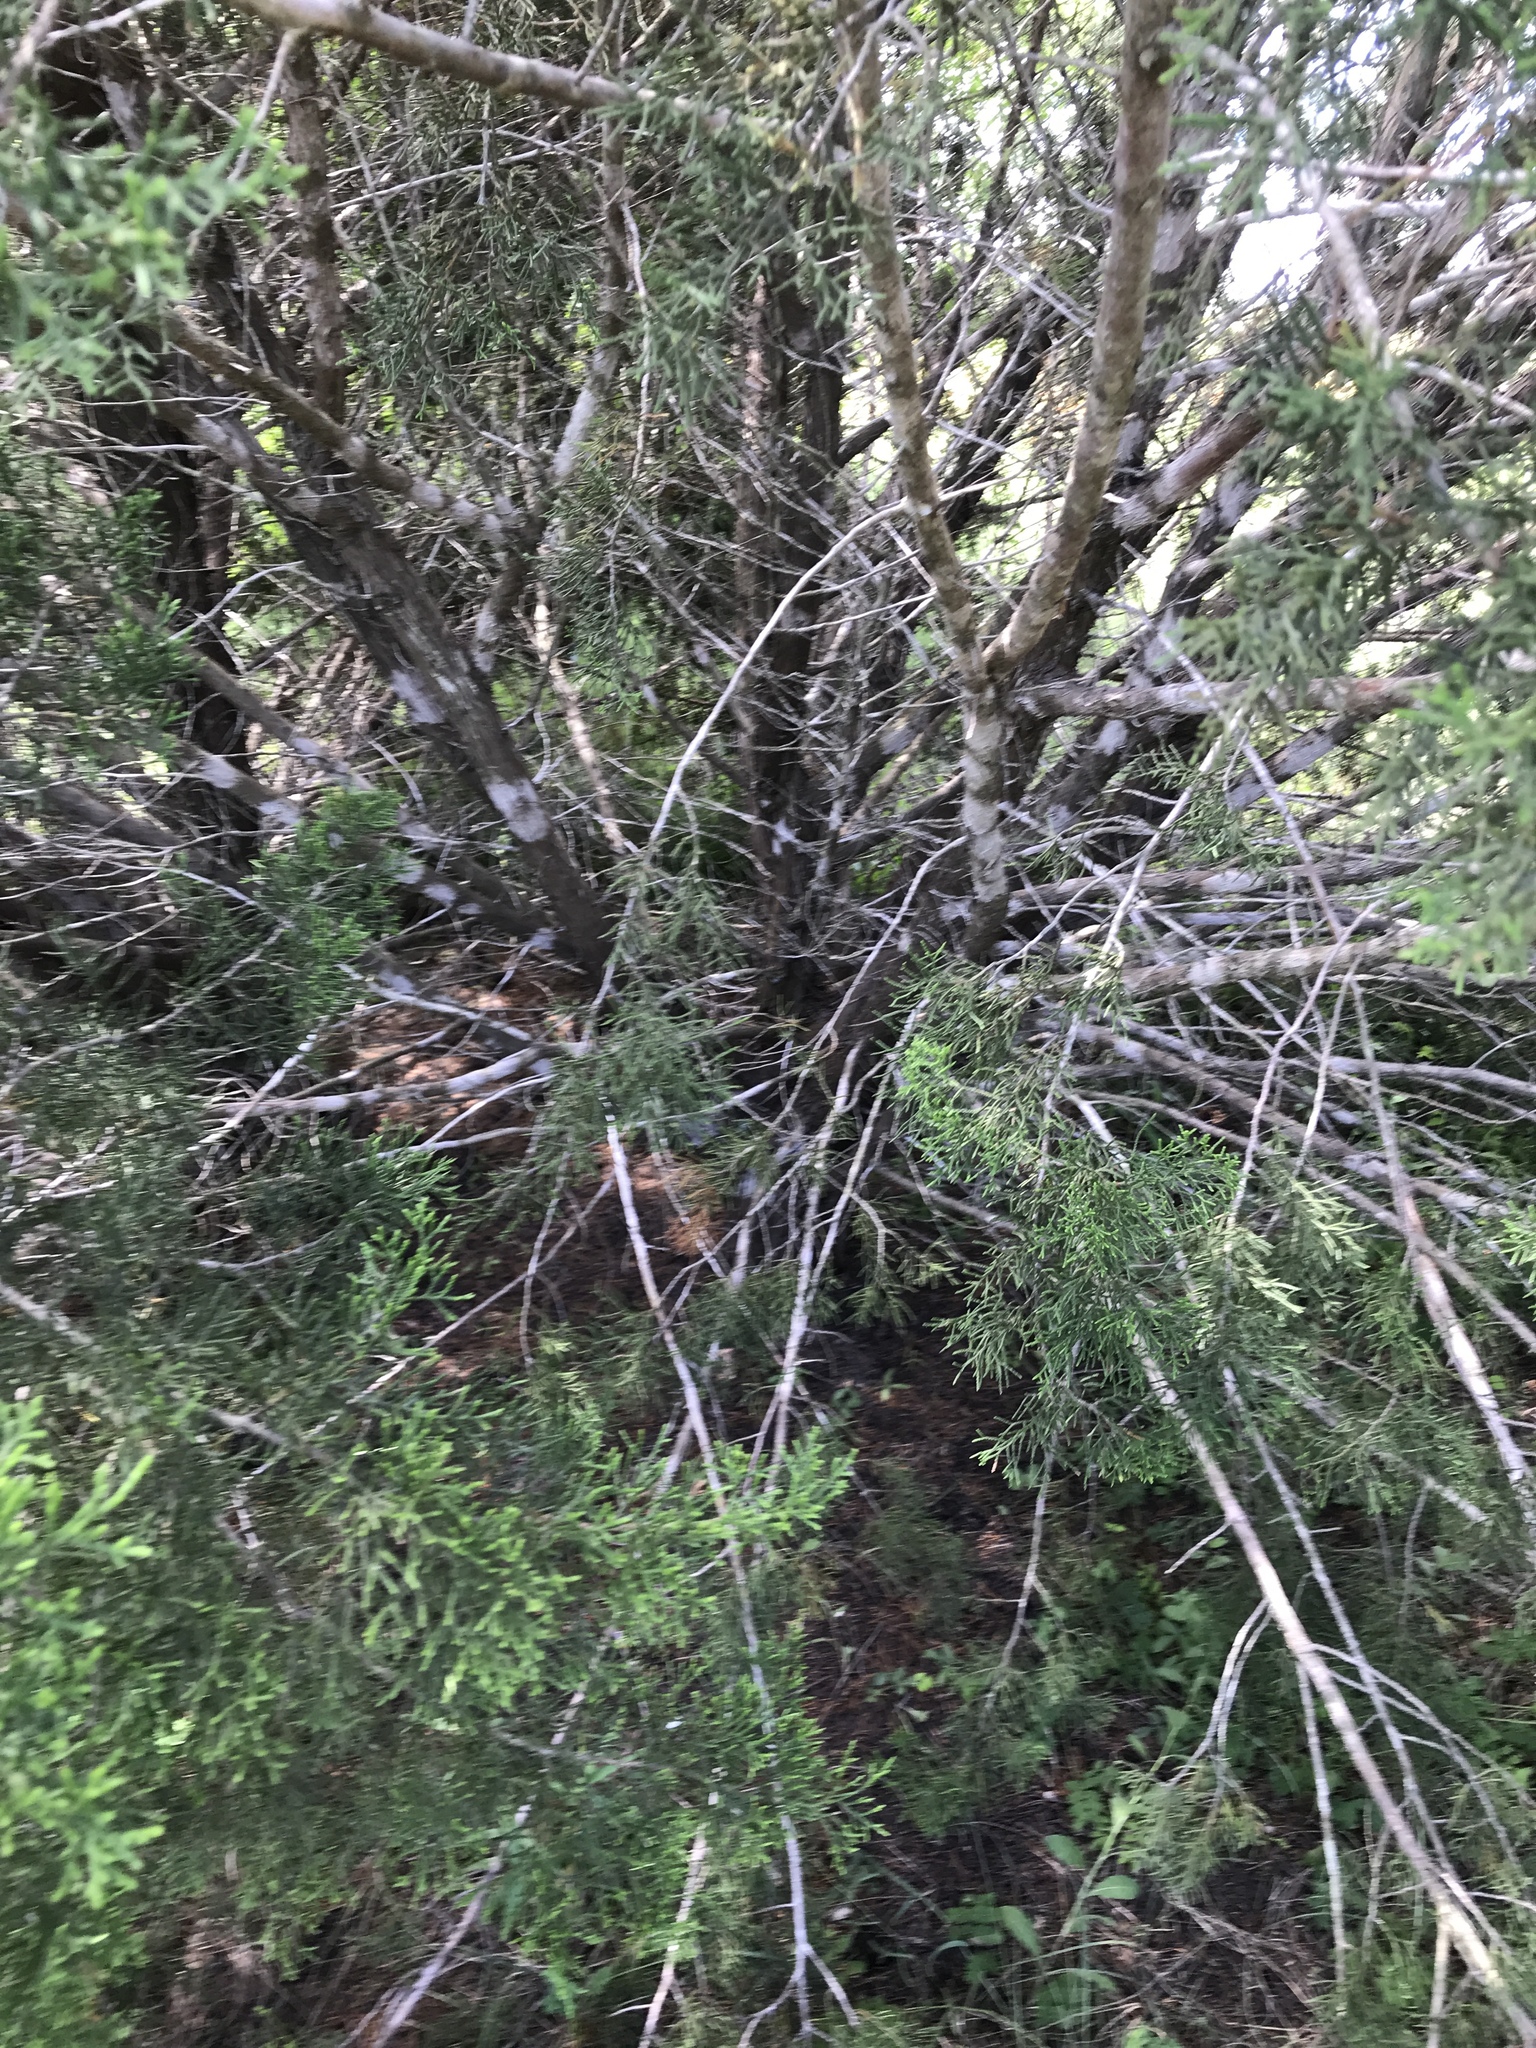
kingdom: Plantae
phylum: Tracheophyta
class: Pinopsida
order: Pinales
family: Cupressaceae
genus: Juniperus
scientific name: Juniperus ashei
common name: Mexican juniper
